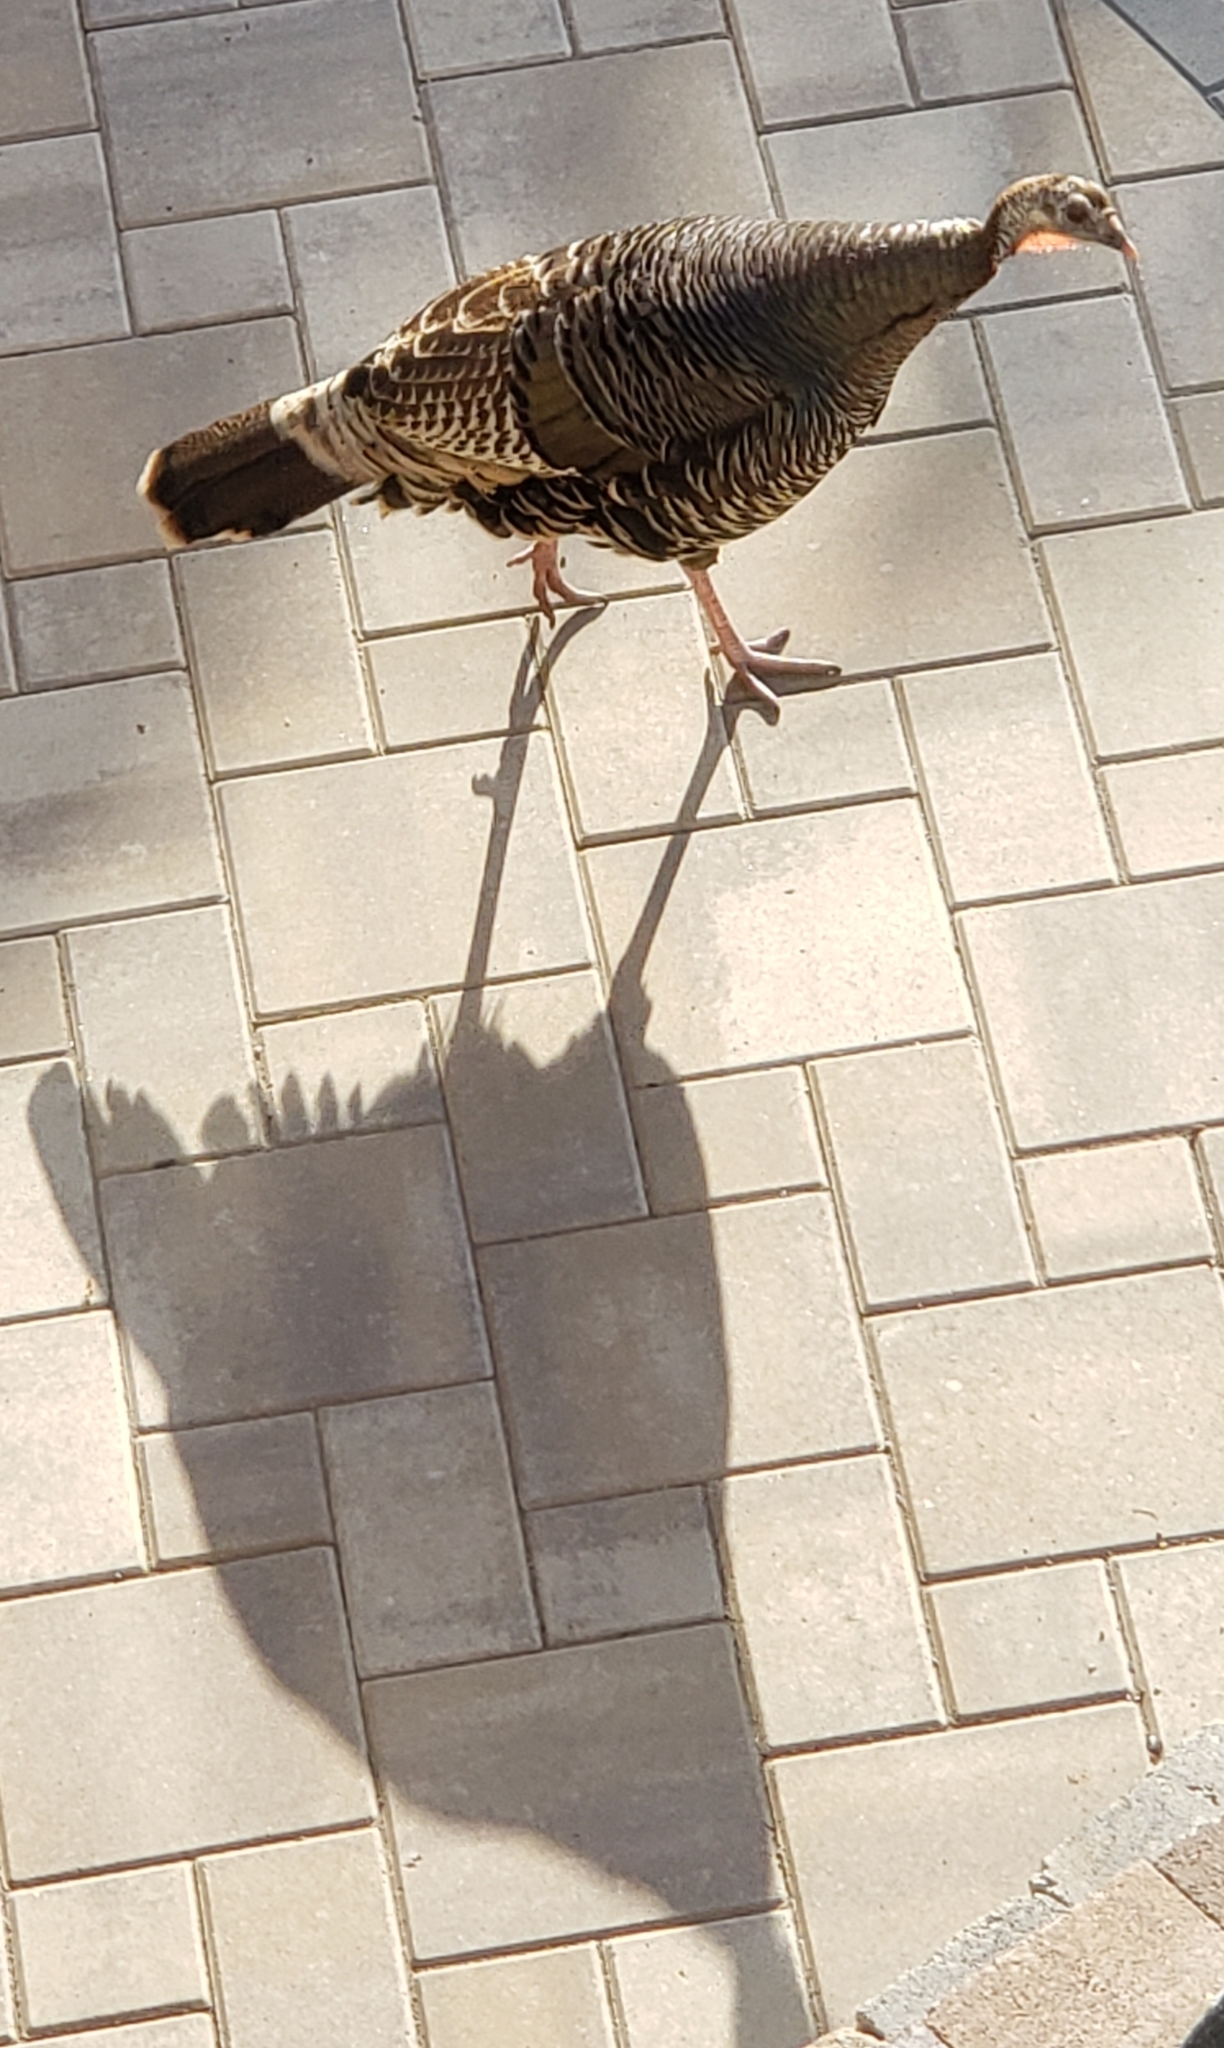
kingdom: Animalia
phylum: Chordata
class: Aves
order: Galliformes
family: Phasianidae
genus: Meleagris
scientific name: Meleagris gallopavo
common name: Wild turkey
